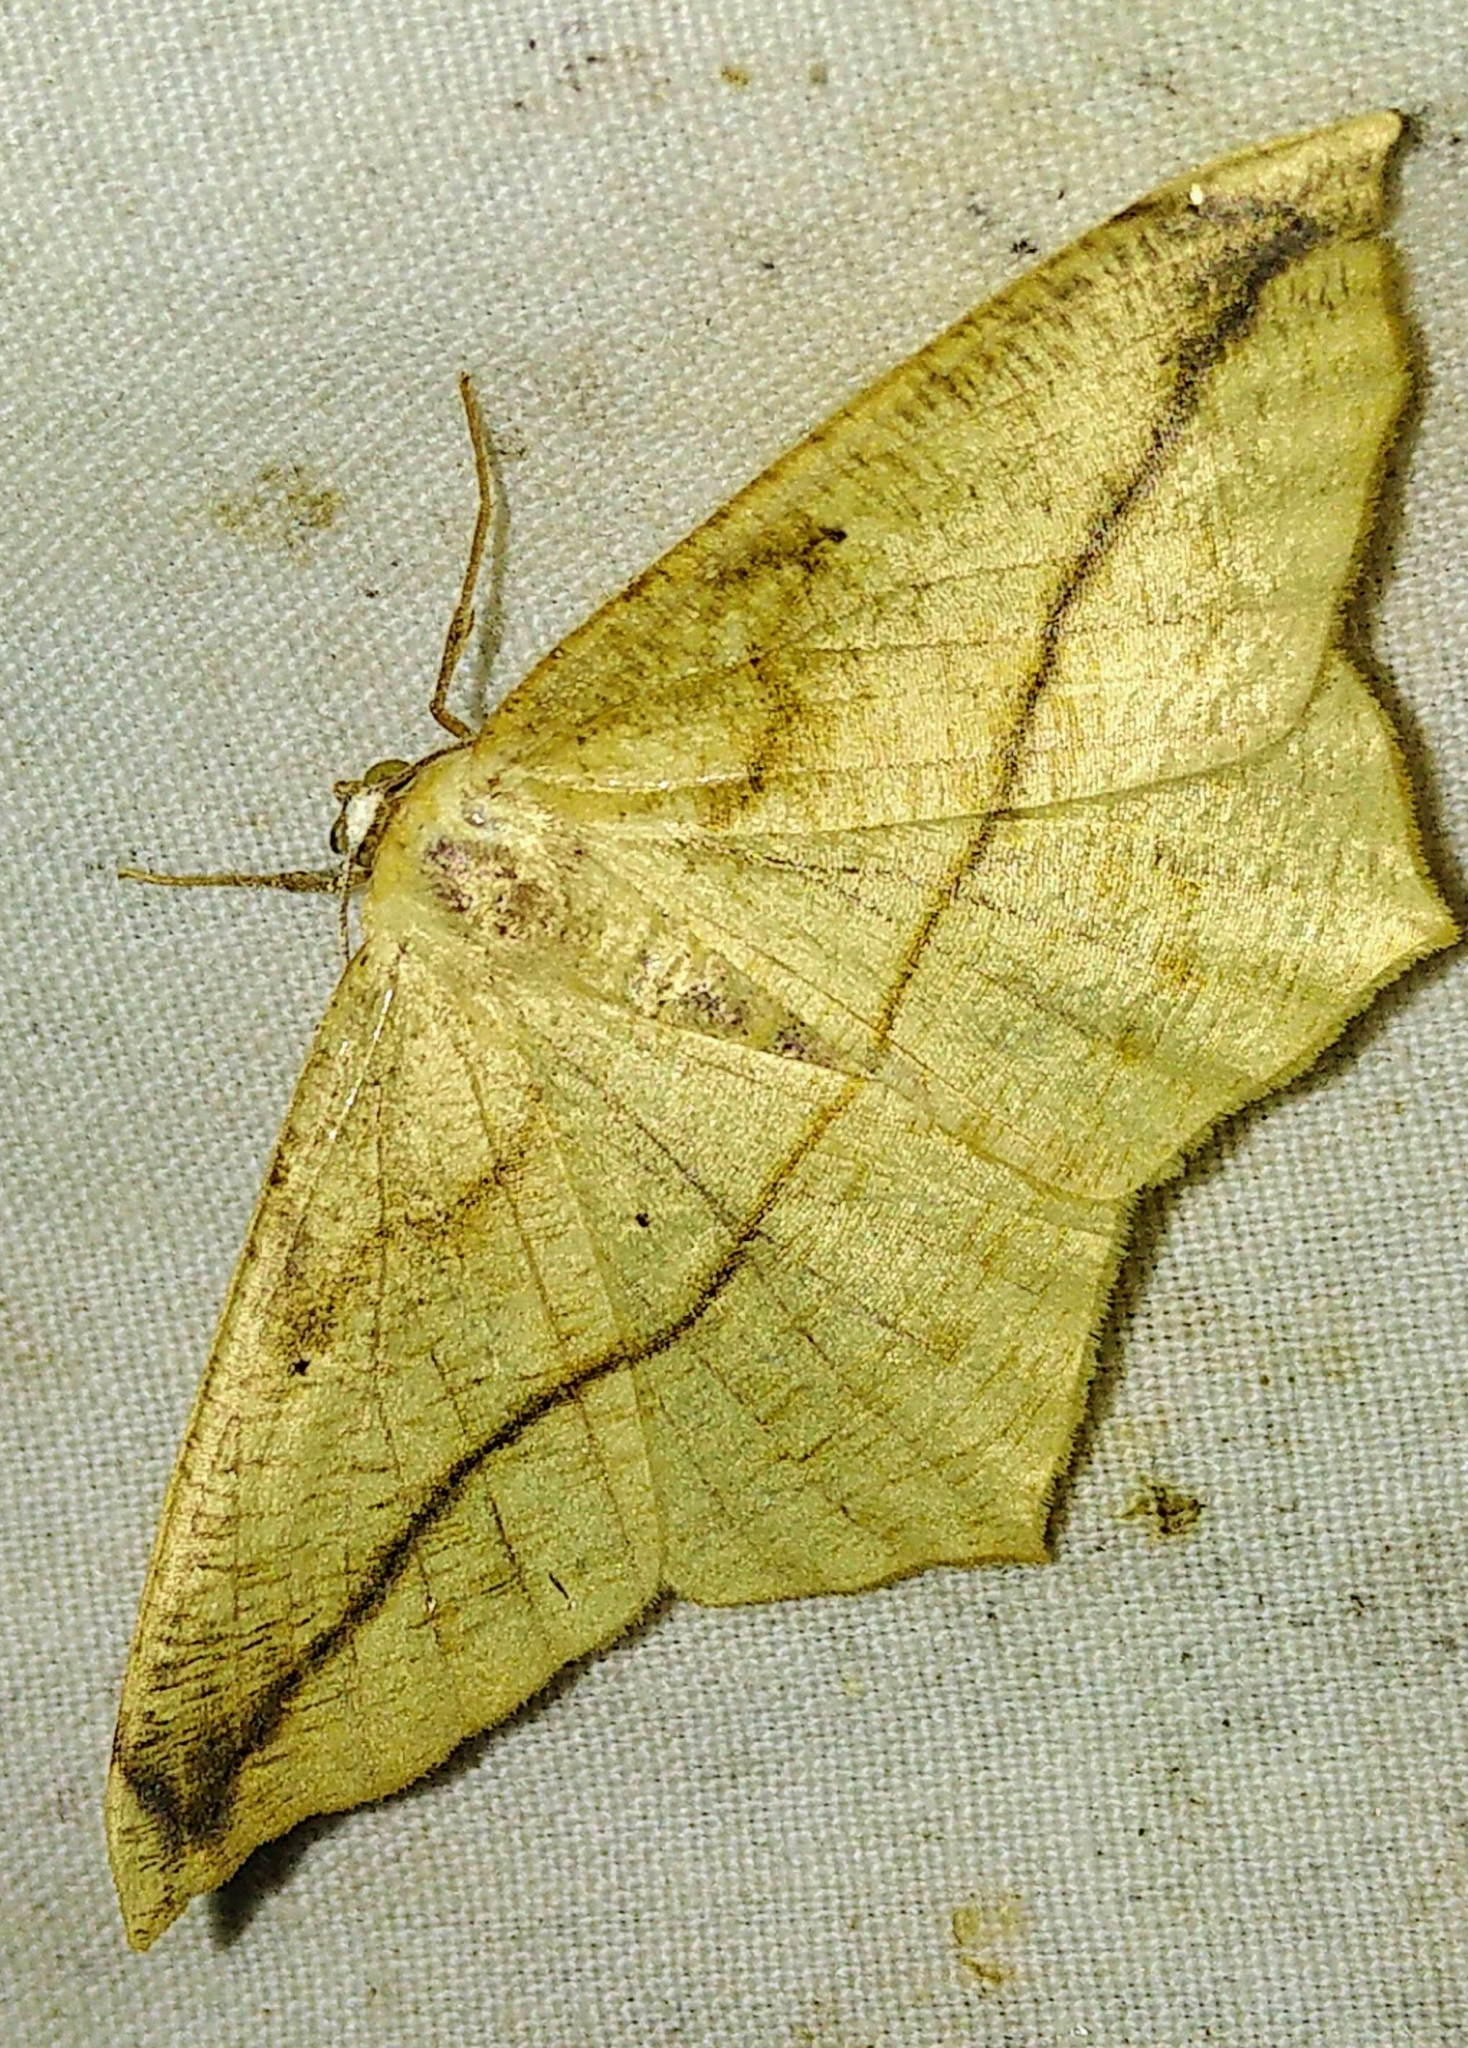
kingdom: Animalia
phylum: Arthropoda
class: Insecta
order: Lepidoptera
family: Geometridae
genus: Prochoerodes
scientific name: Prochoerodes lineola
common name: Large maple spanworm
